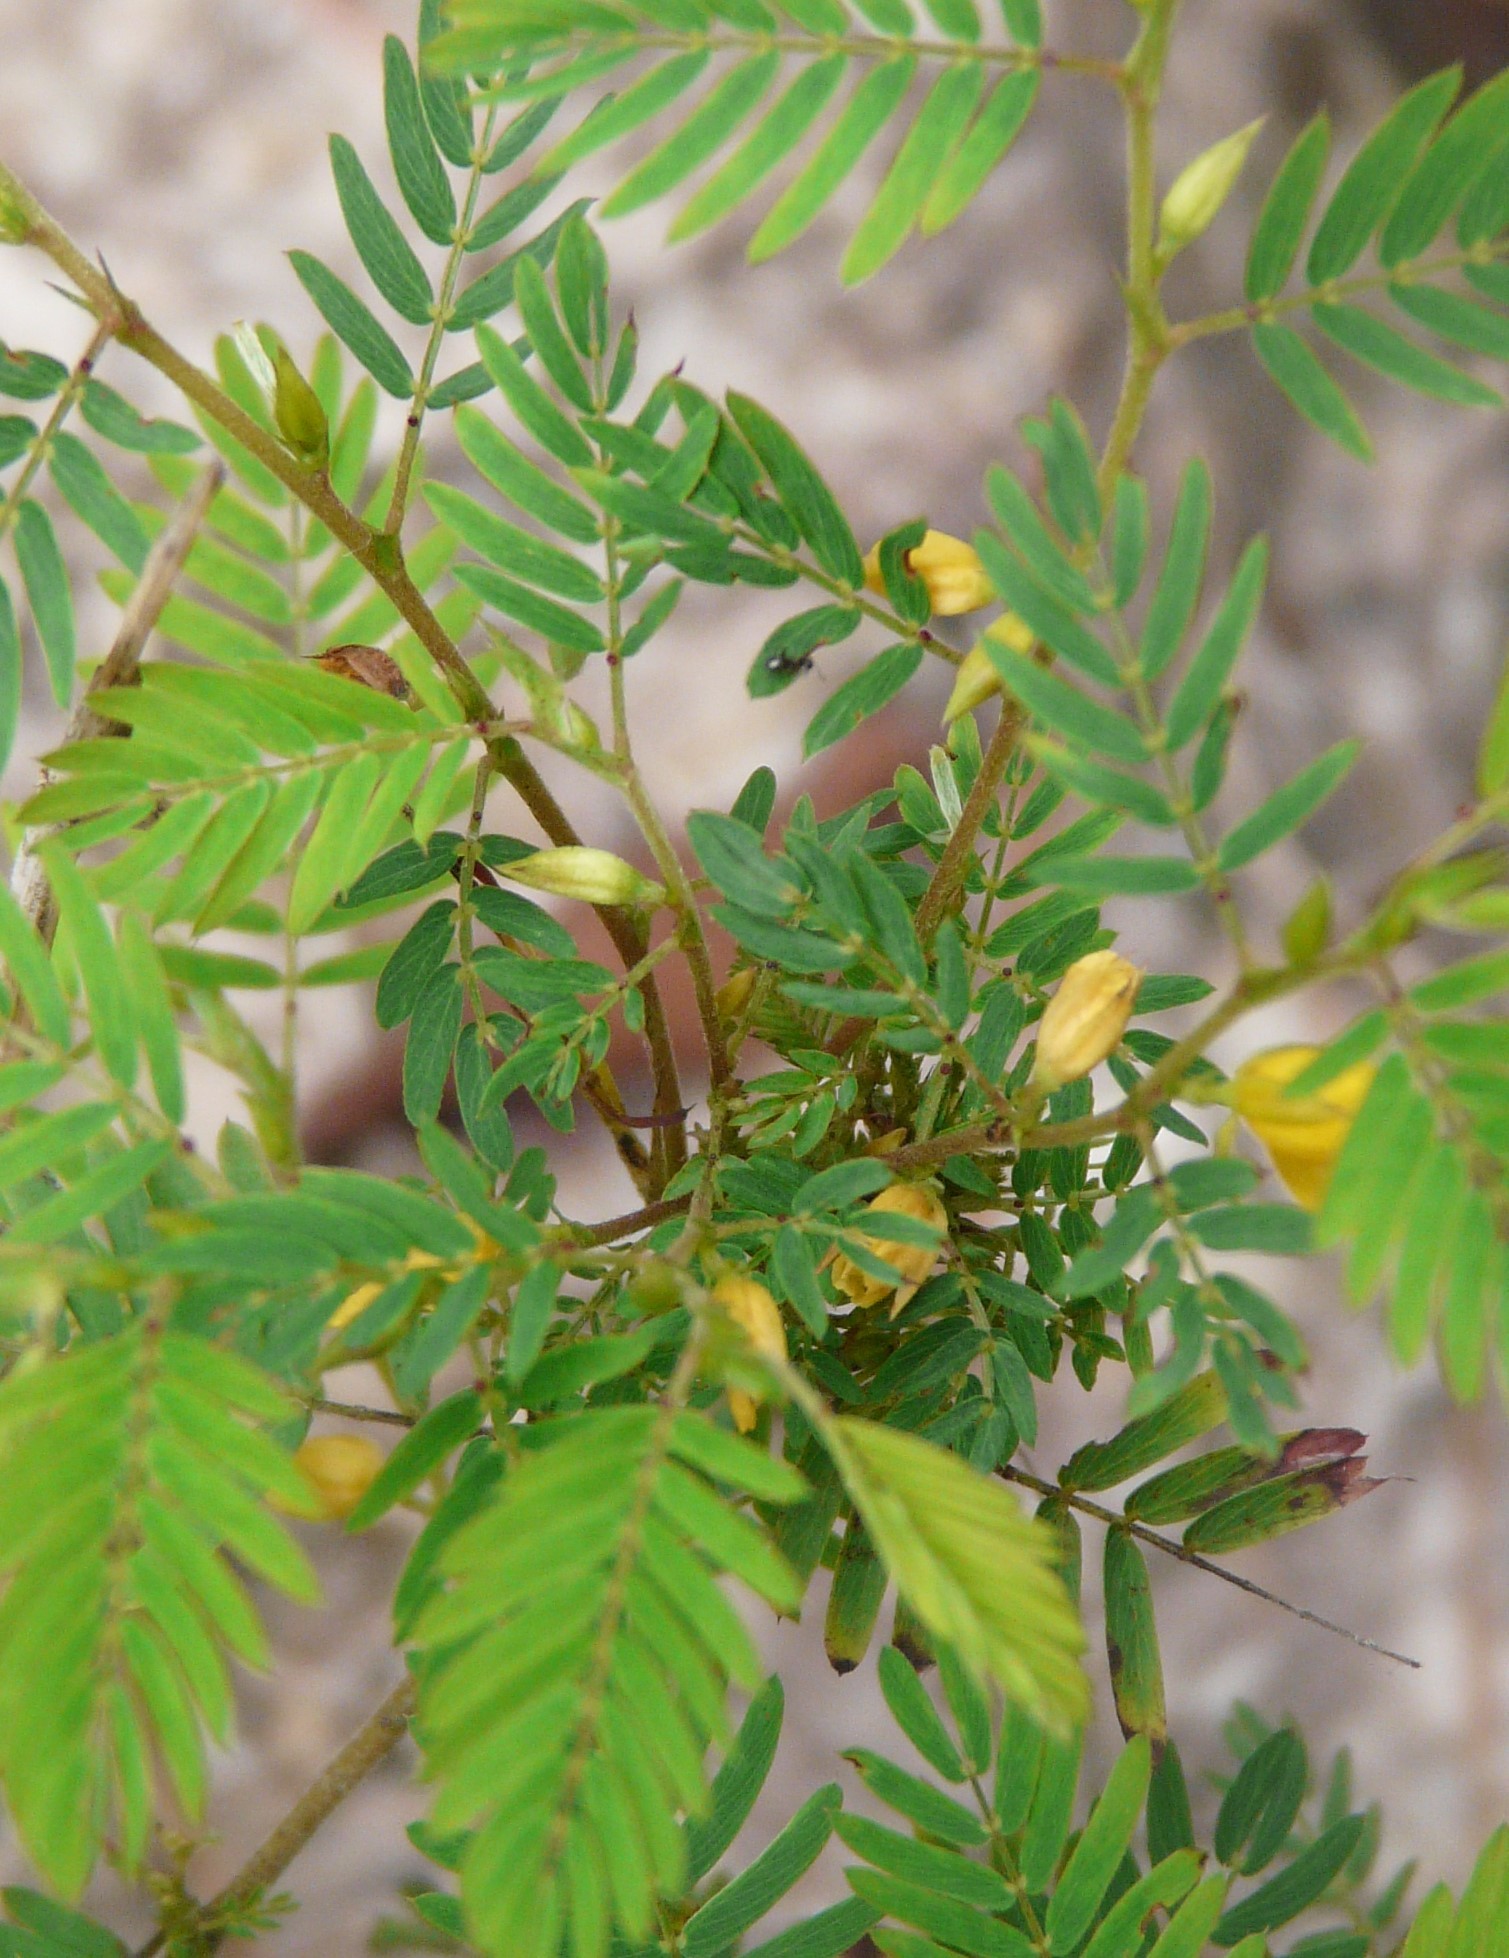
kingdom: Plantae
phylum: Tracheophyta
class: Magnoliopsida
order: Fabales
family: Fabaceae
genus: Chamaecrista
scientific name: Chamaecrista nictitans
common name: Sensitive cassia
